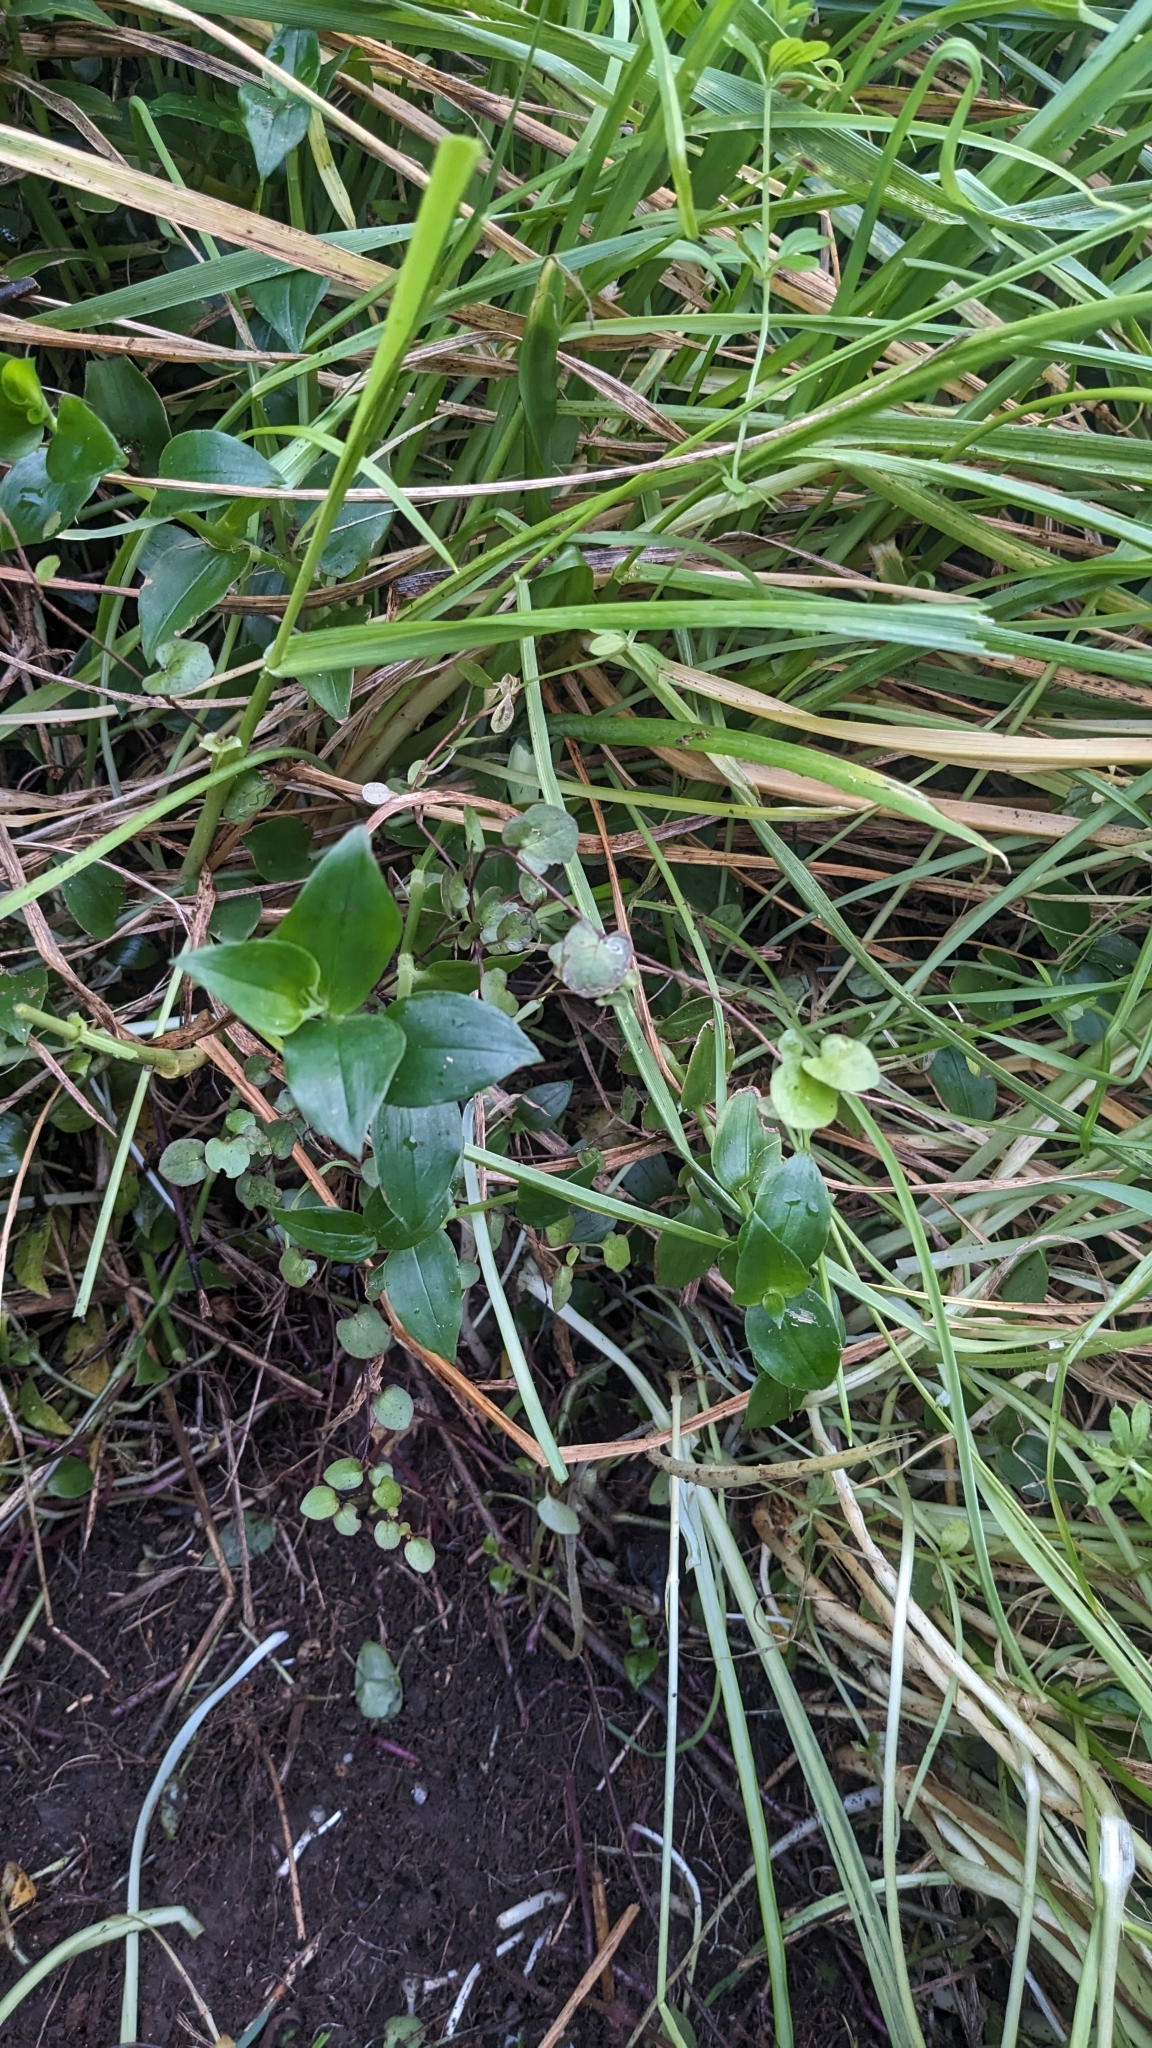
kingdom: Plantae
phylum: Tracheophyta
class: Magnoliopsida
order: Caryophyllales
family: Polygonaceae
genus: Muehlenbeckia
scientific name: Muehlenbeckia australis
